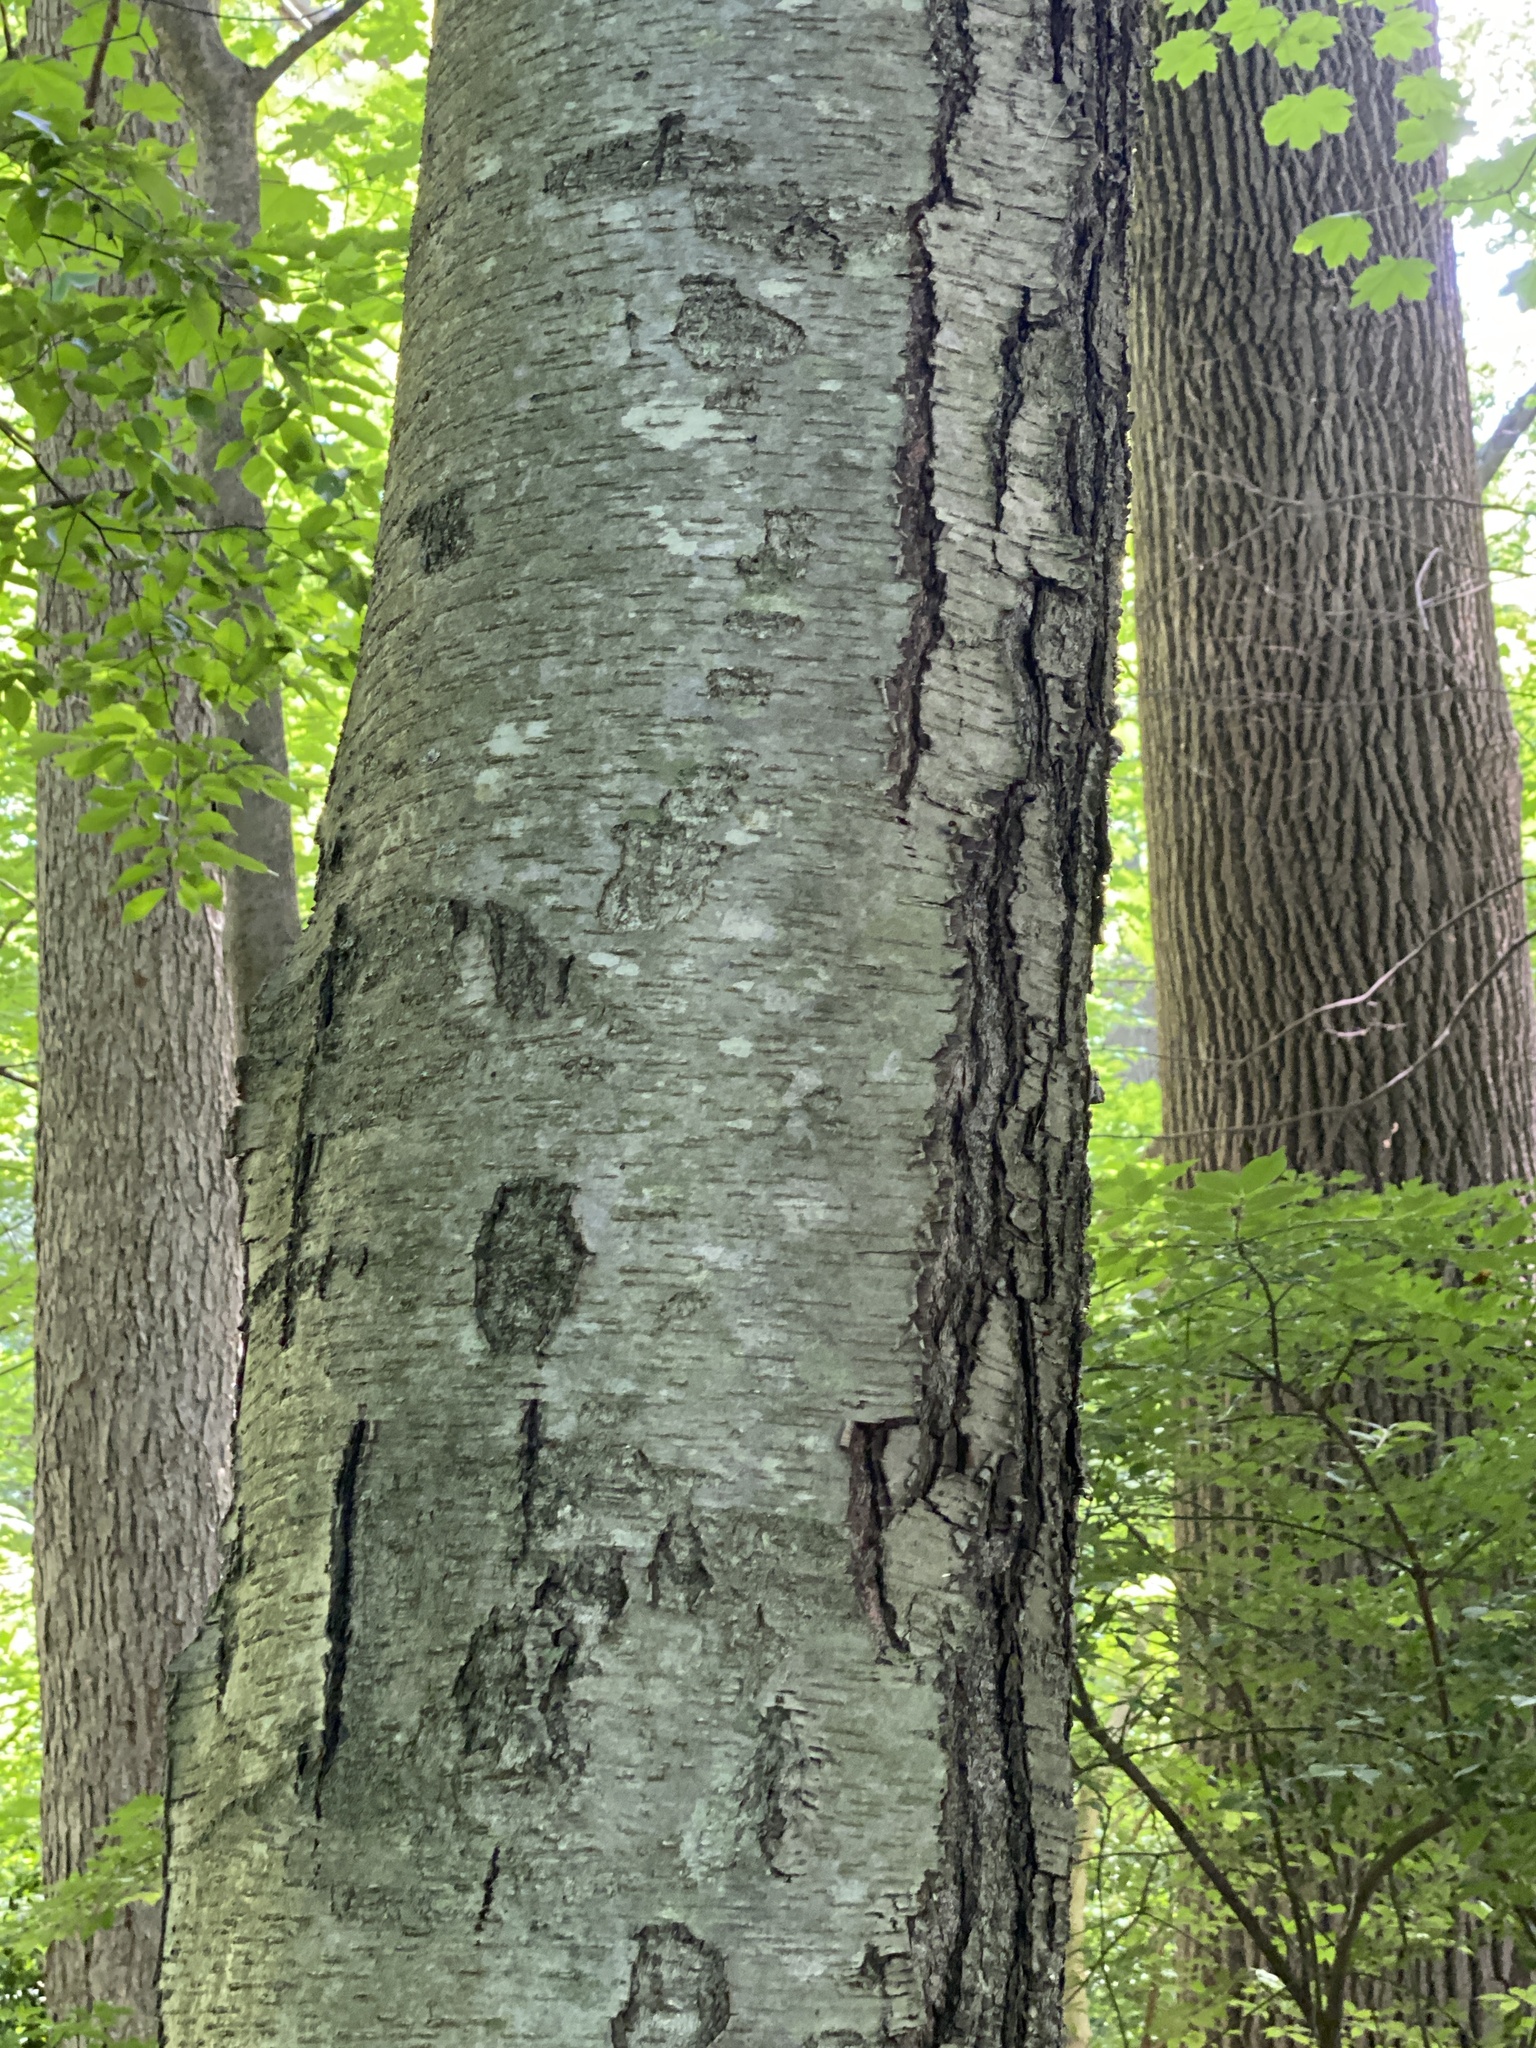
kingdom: Plantae
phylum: Tracheophyta
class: Magnoliopsida
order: Fagales
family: Betulaceae
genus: Betula
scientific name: Betula lenta
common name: Black birch
